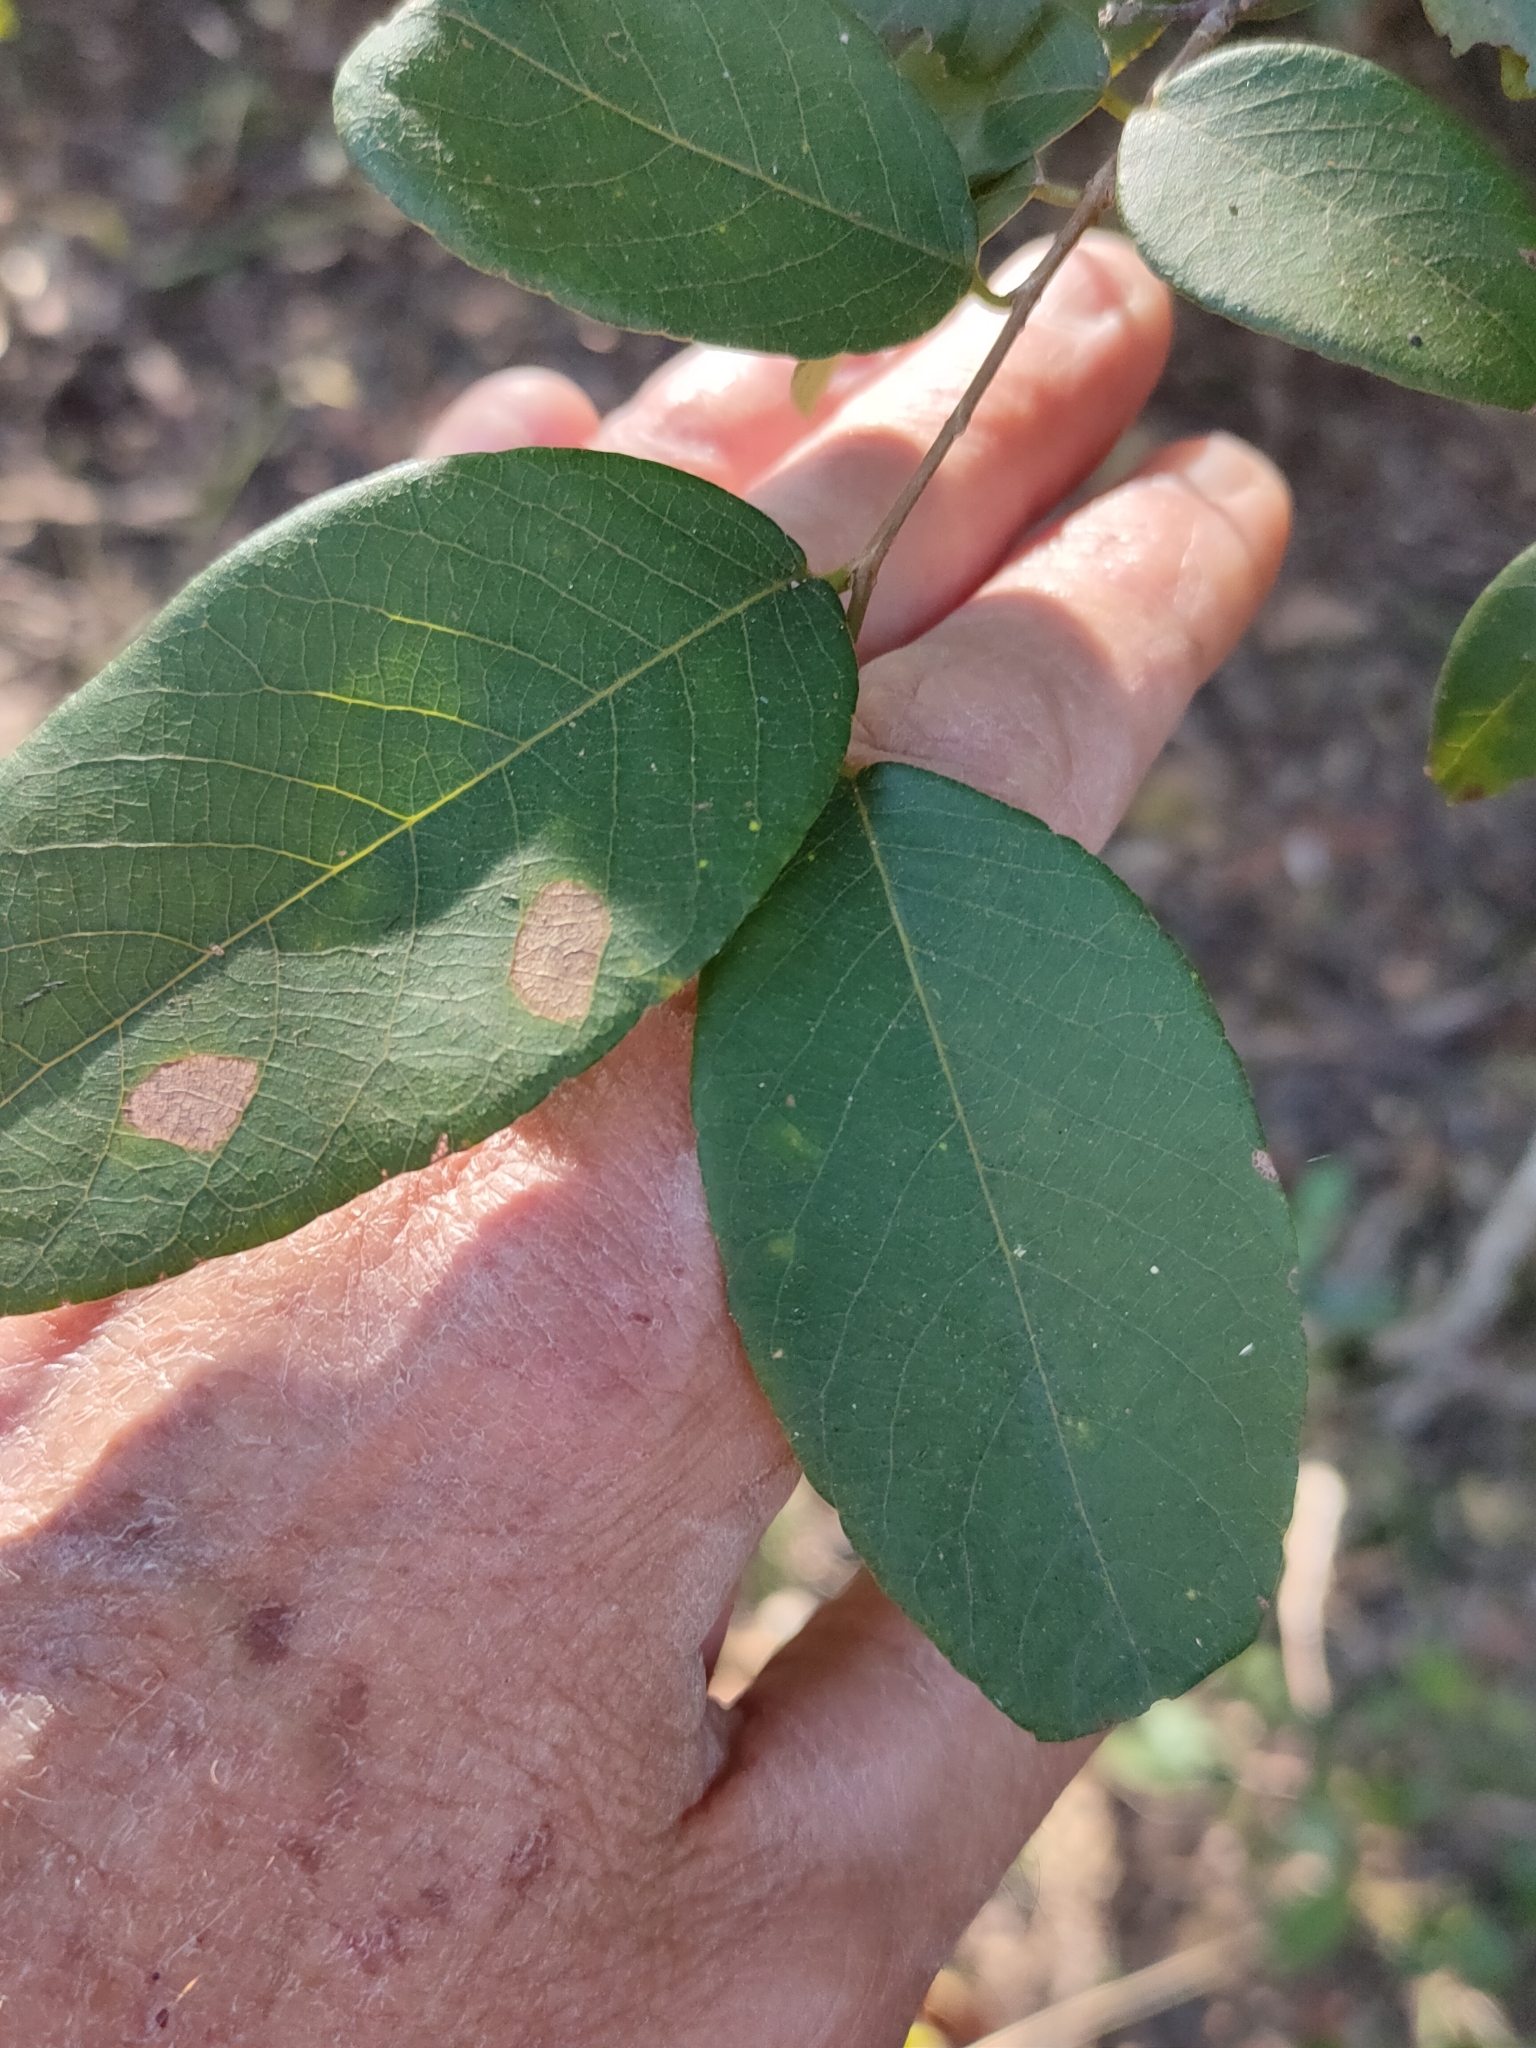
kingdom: Plantae
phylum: Tracheophyta
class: Magnoliopsida
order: Malpighiales
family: Phyllanthaceae
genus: Bridelia
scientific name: Bridelia leichhardtii
